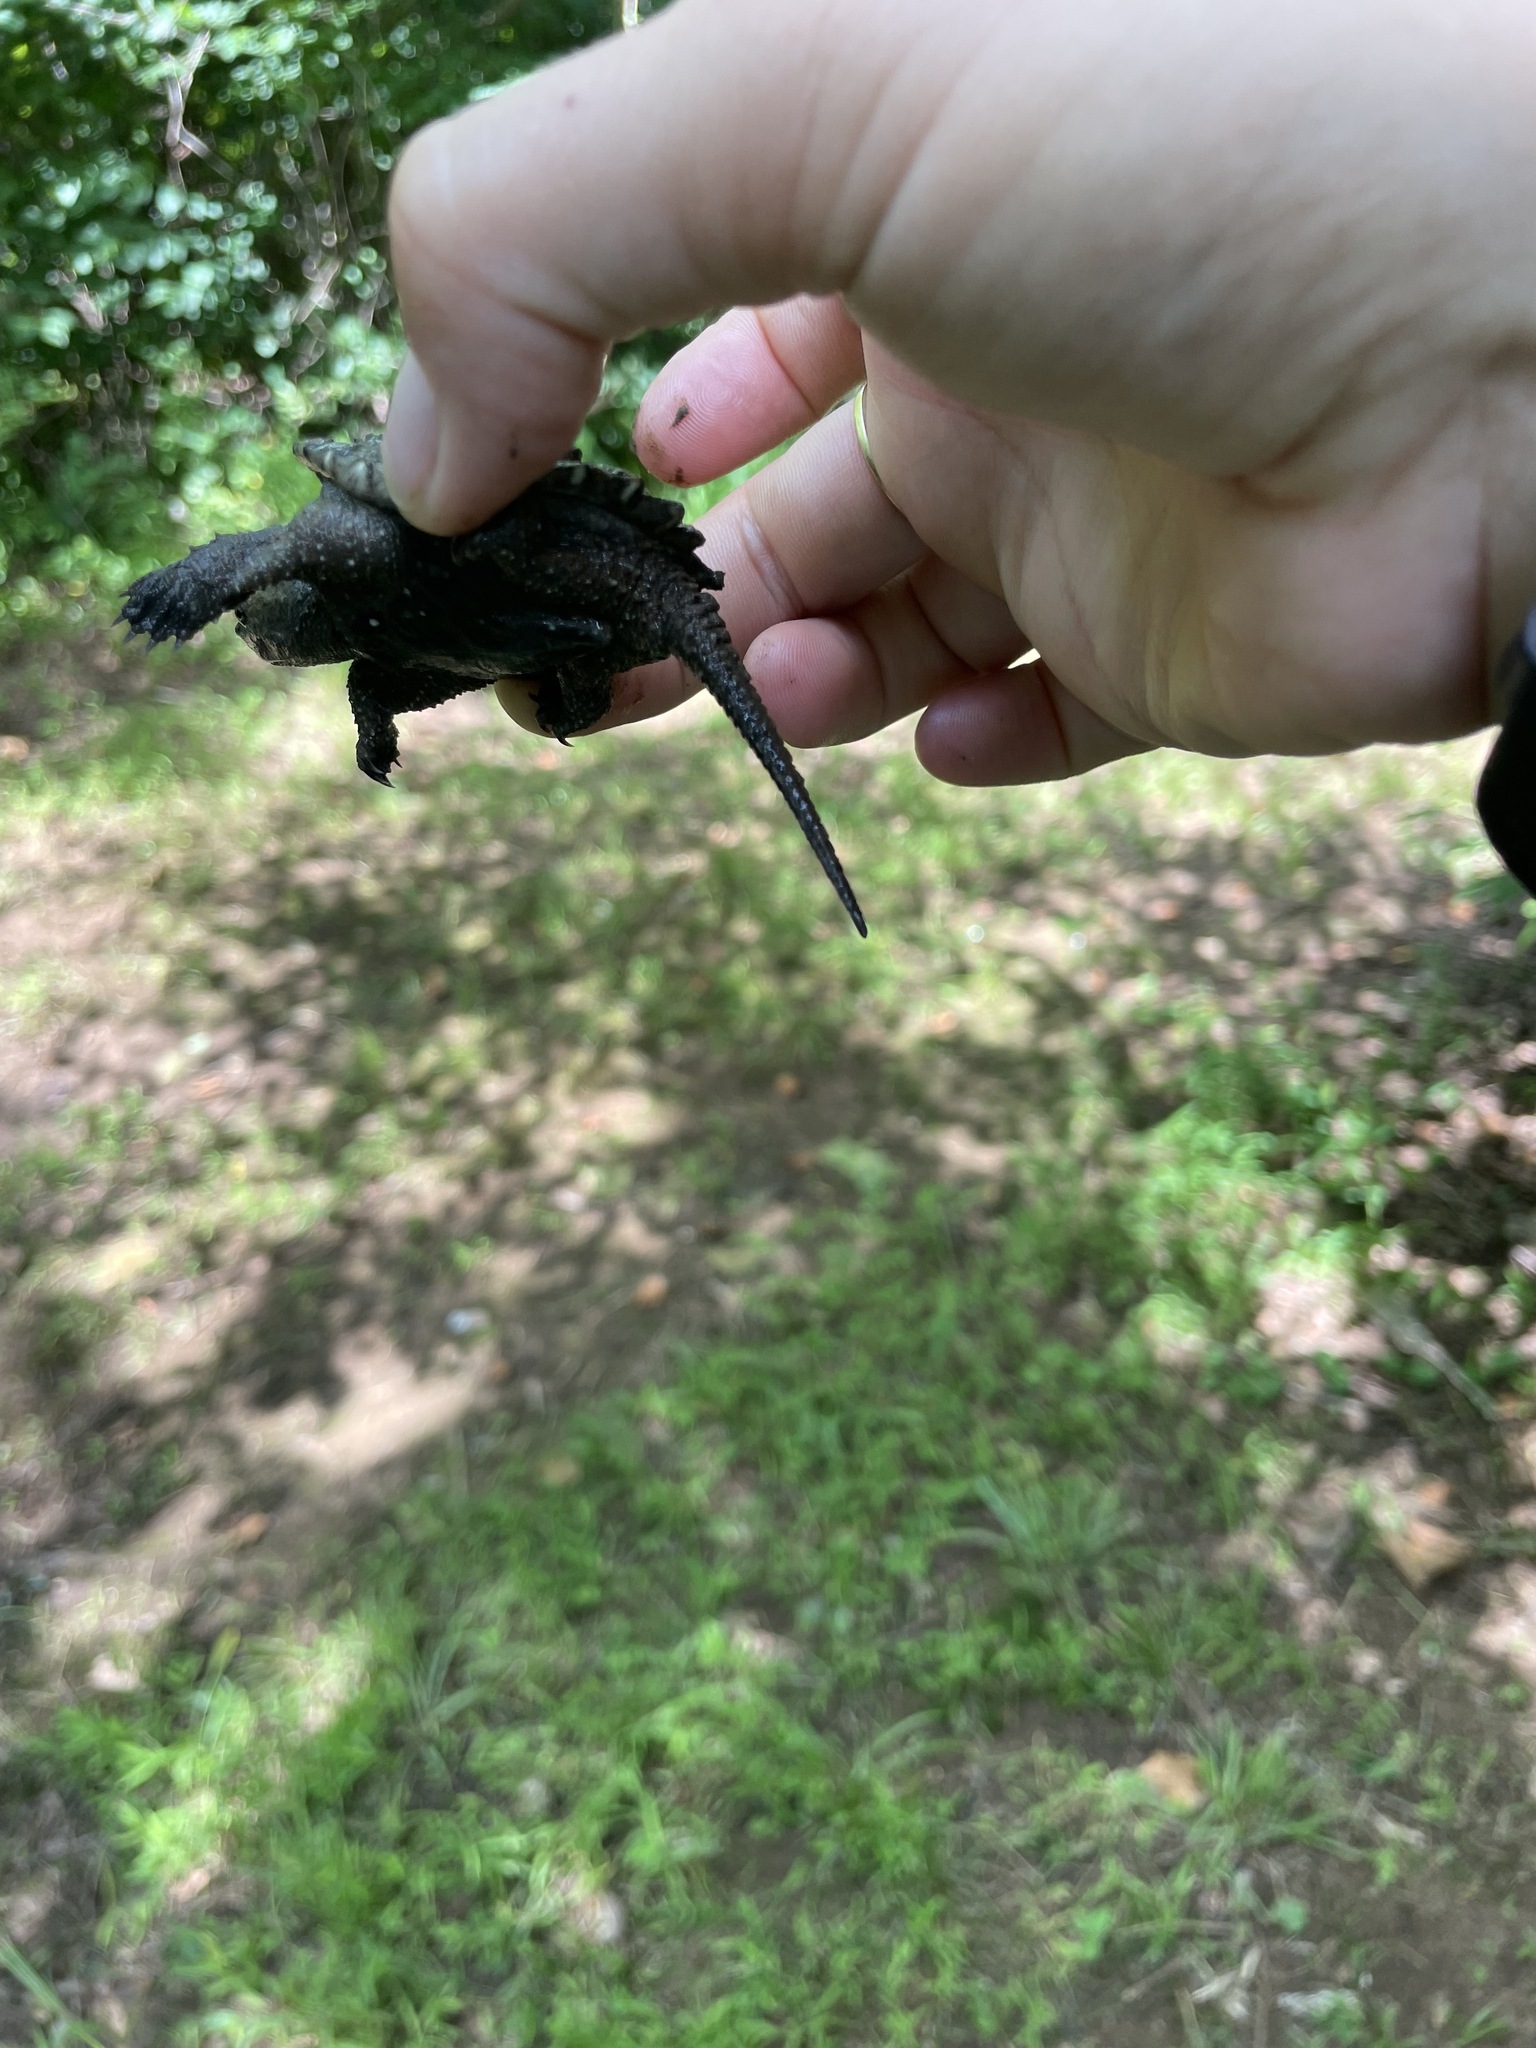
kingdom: Animalia
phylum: Chordata
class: Testudines
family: Chelydridae
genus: Chelydra
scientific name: Chelydra serpentina
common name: Common snapping turtle
